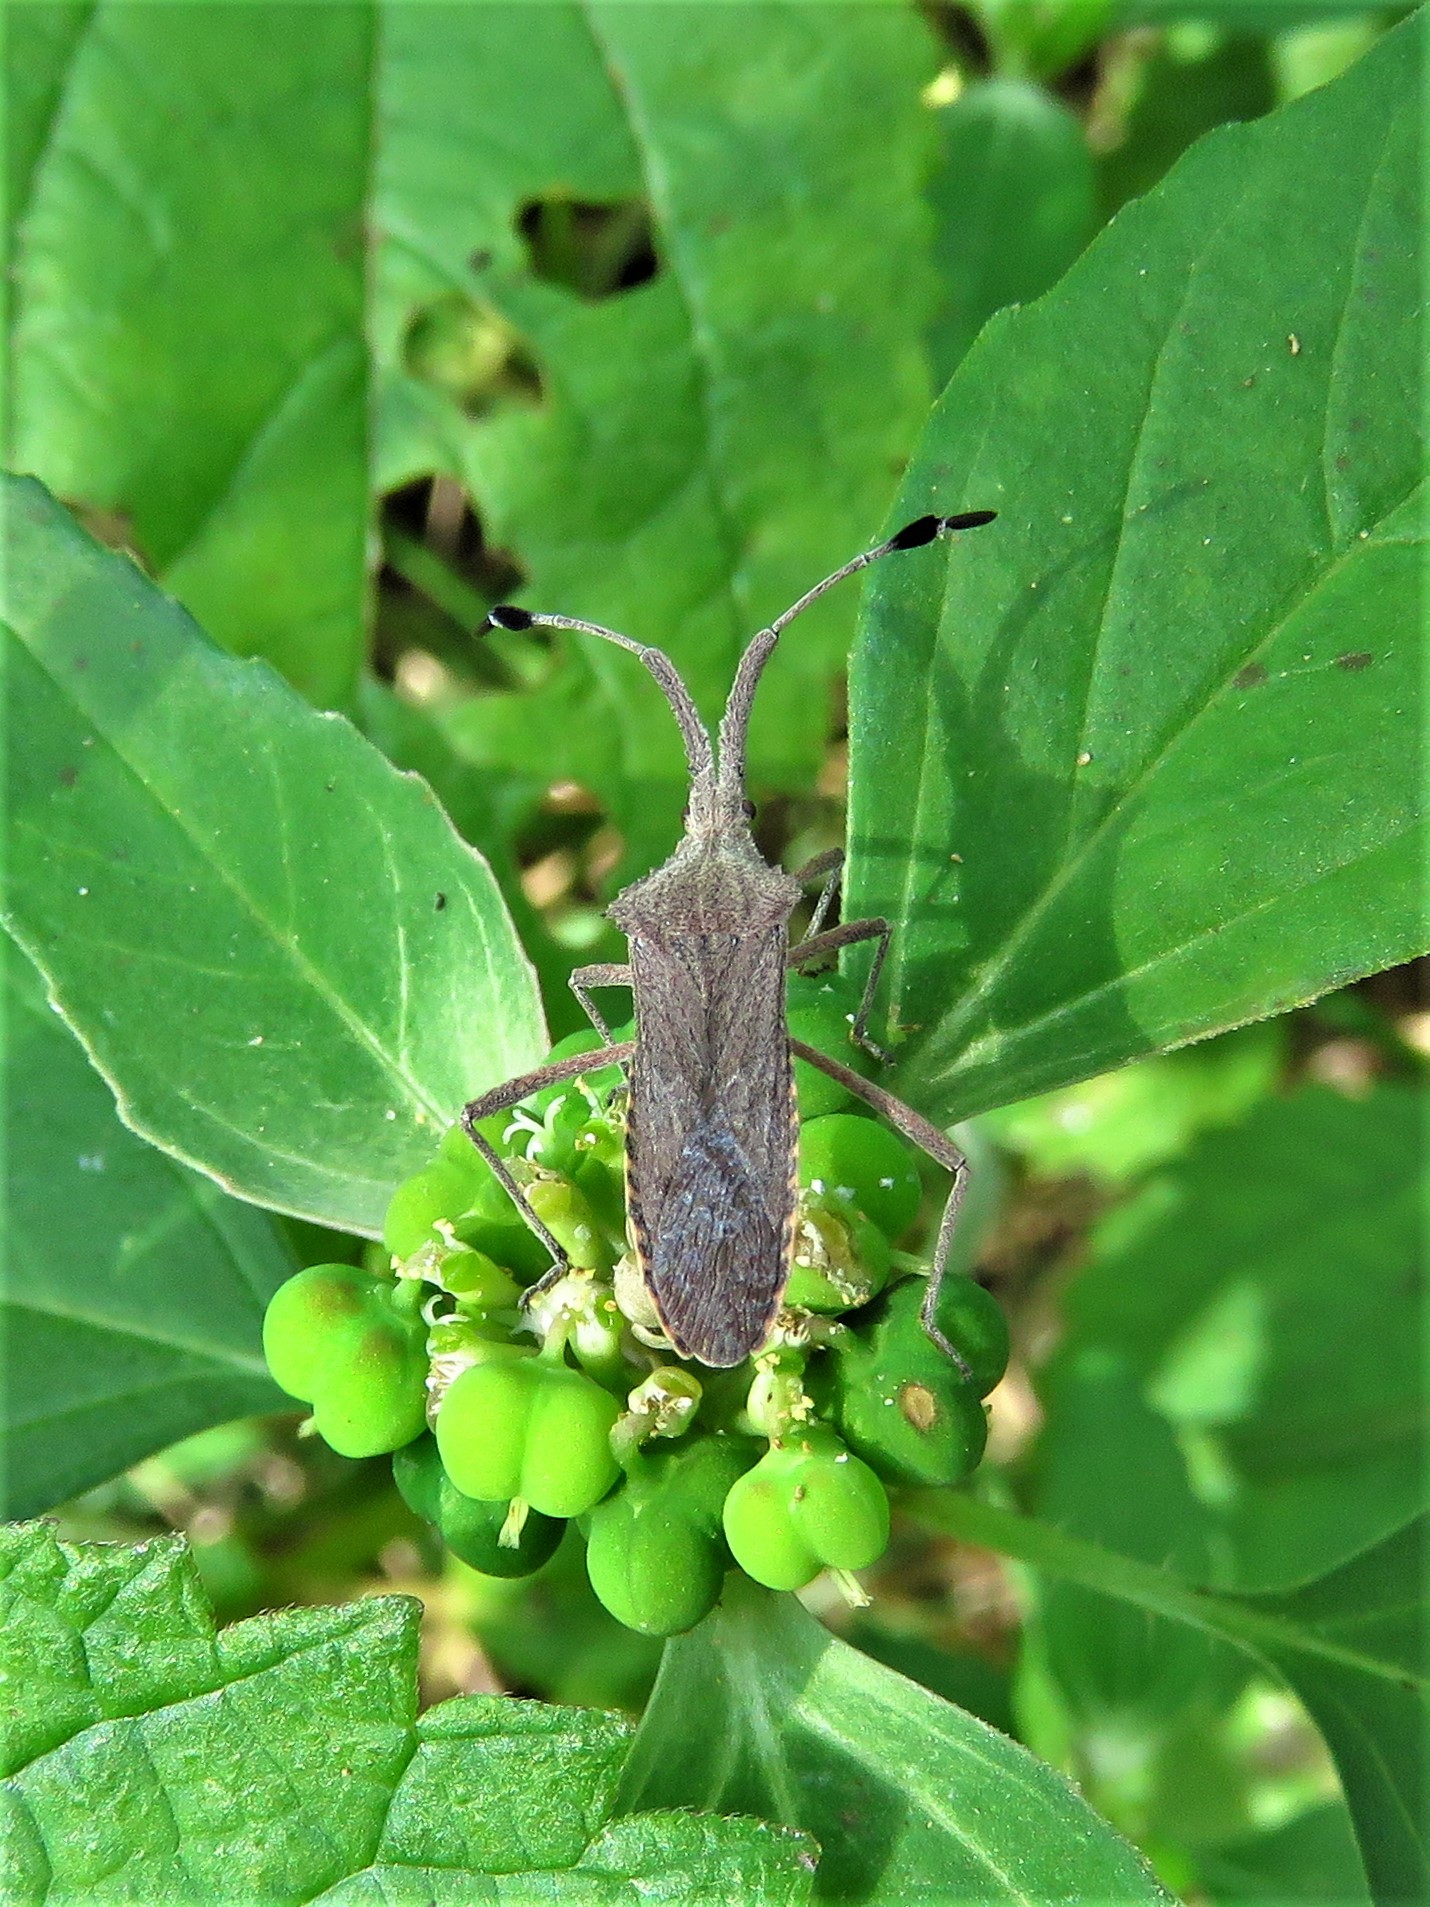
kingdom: Animalia
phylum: Arthropoda
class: Insecta
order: Hemiptera
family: Coreidae
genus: Chariesterus
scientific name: Chariesterus antennator
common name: Flat horned coreid
